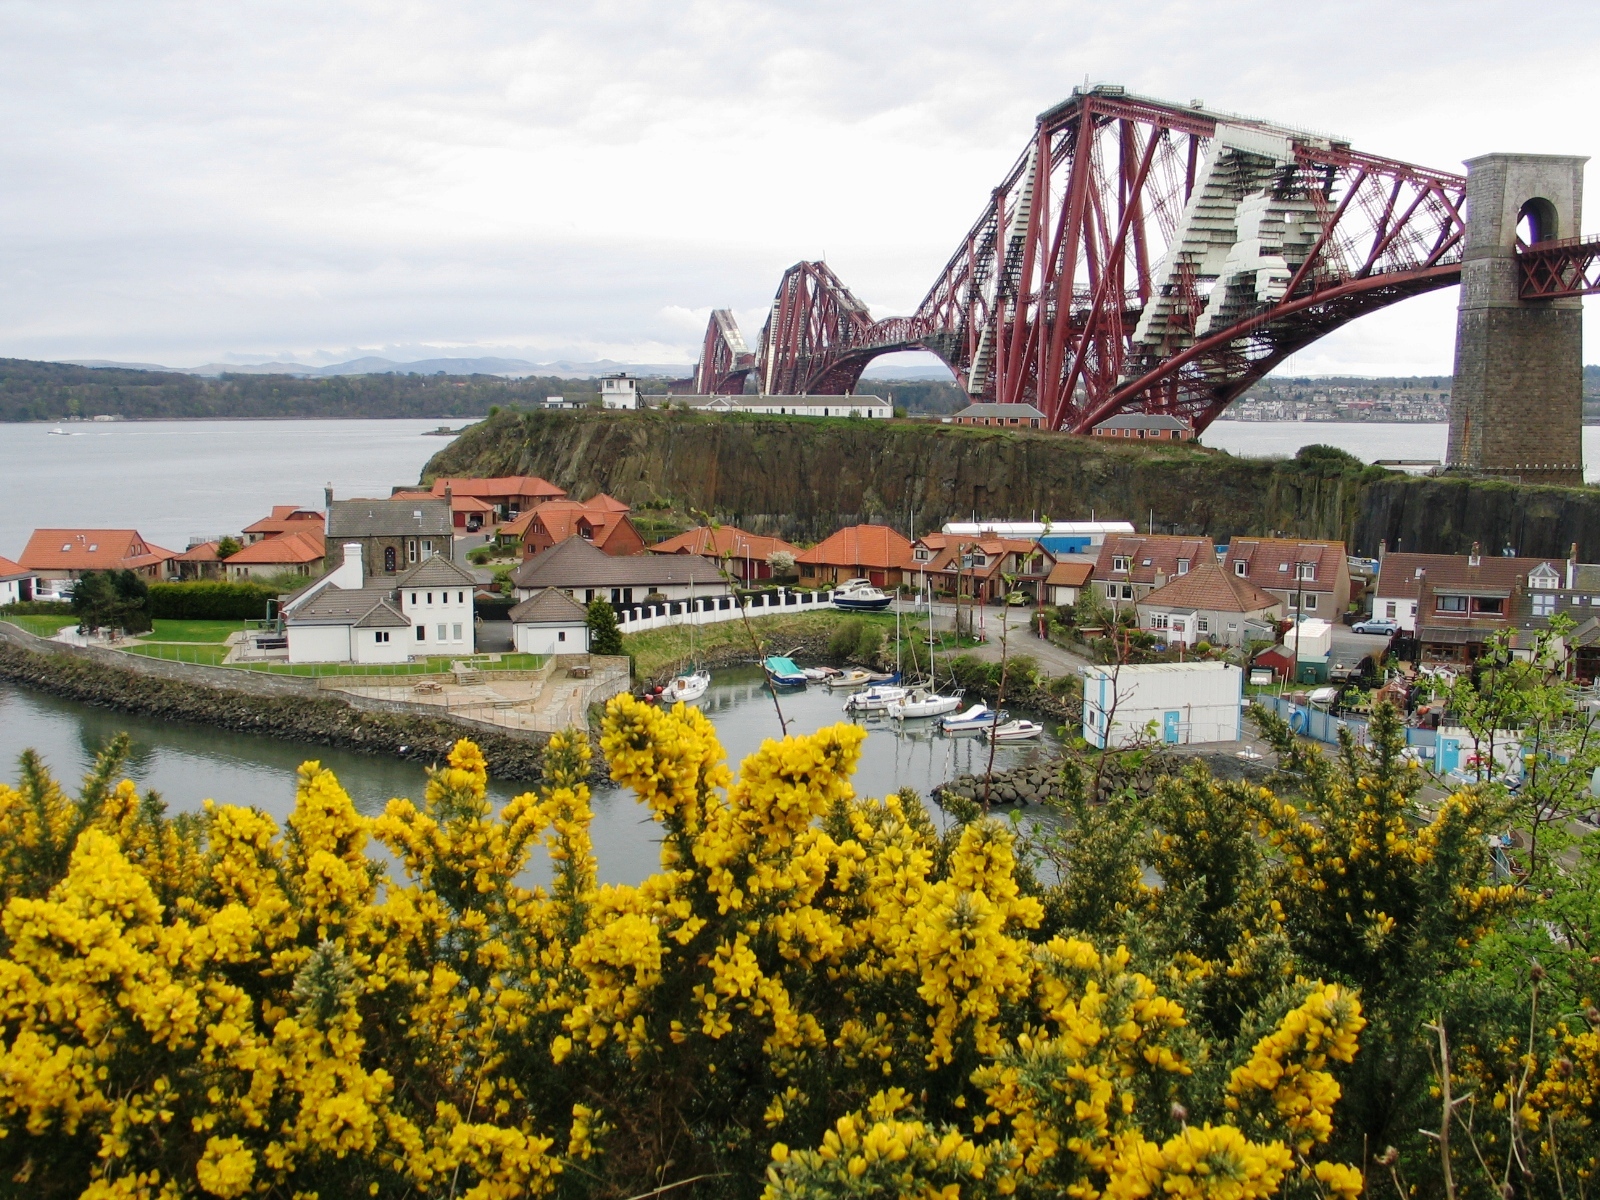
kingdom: Plantae
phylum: Tracheophyta
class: Magnoliopsida
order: Fabales
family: Fabaceae
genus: Ulex
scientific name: Ulex europaeus
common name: Common gorse
